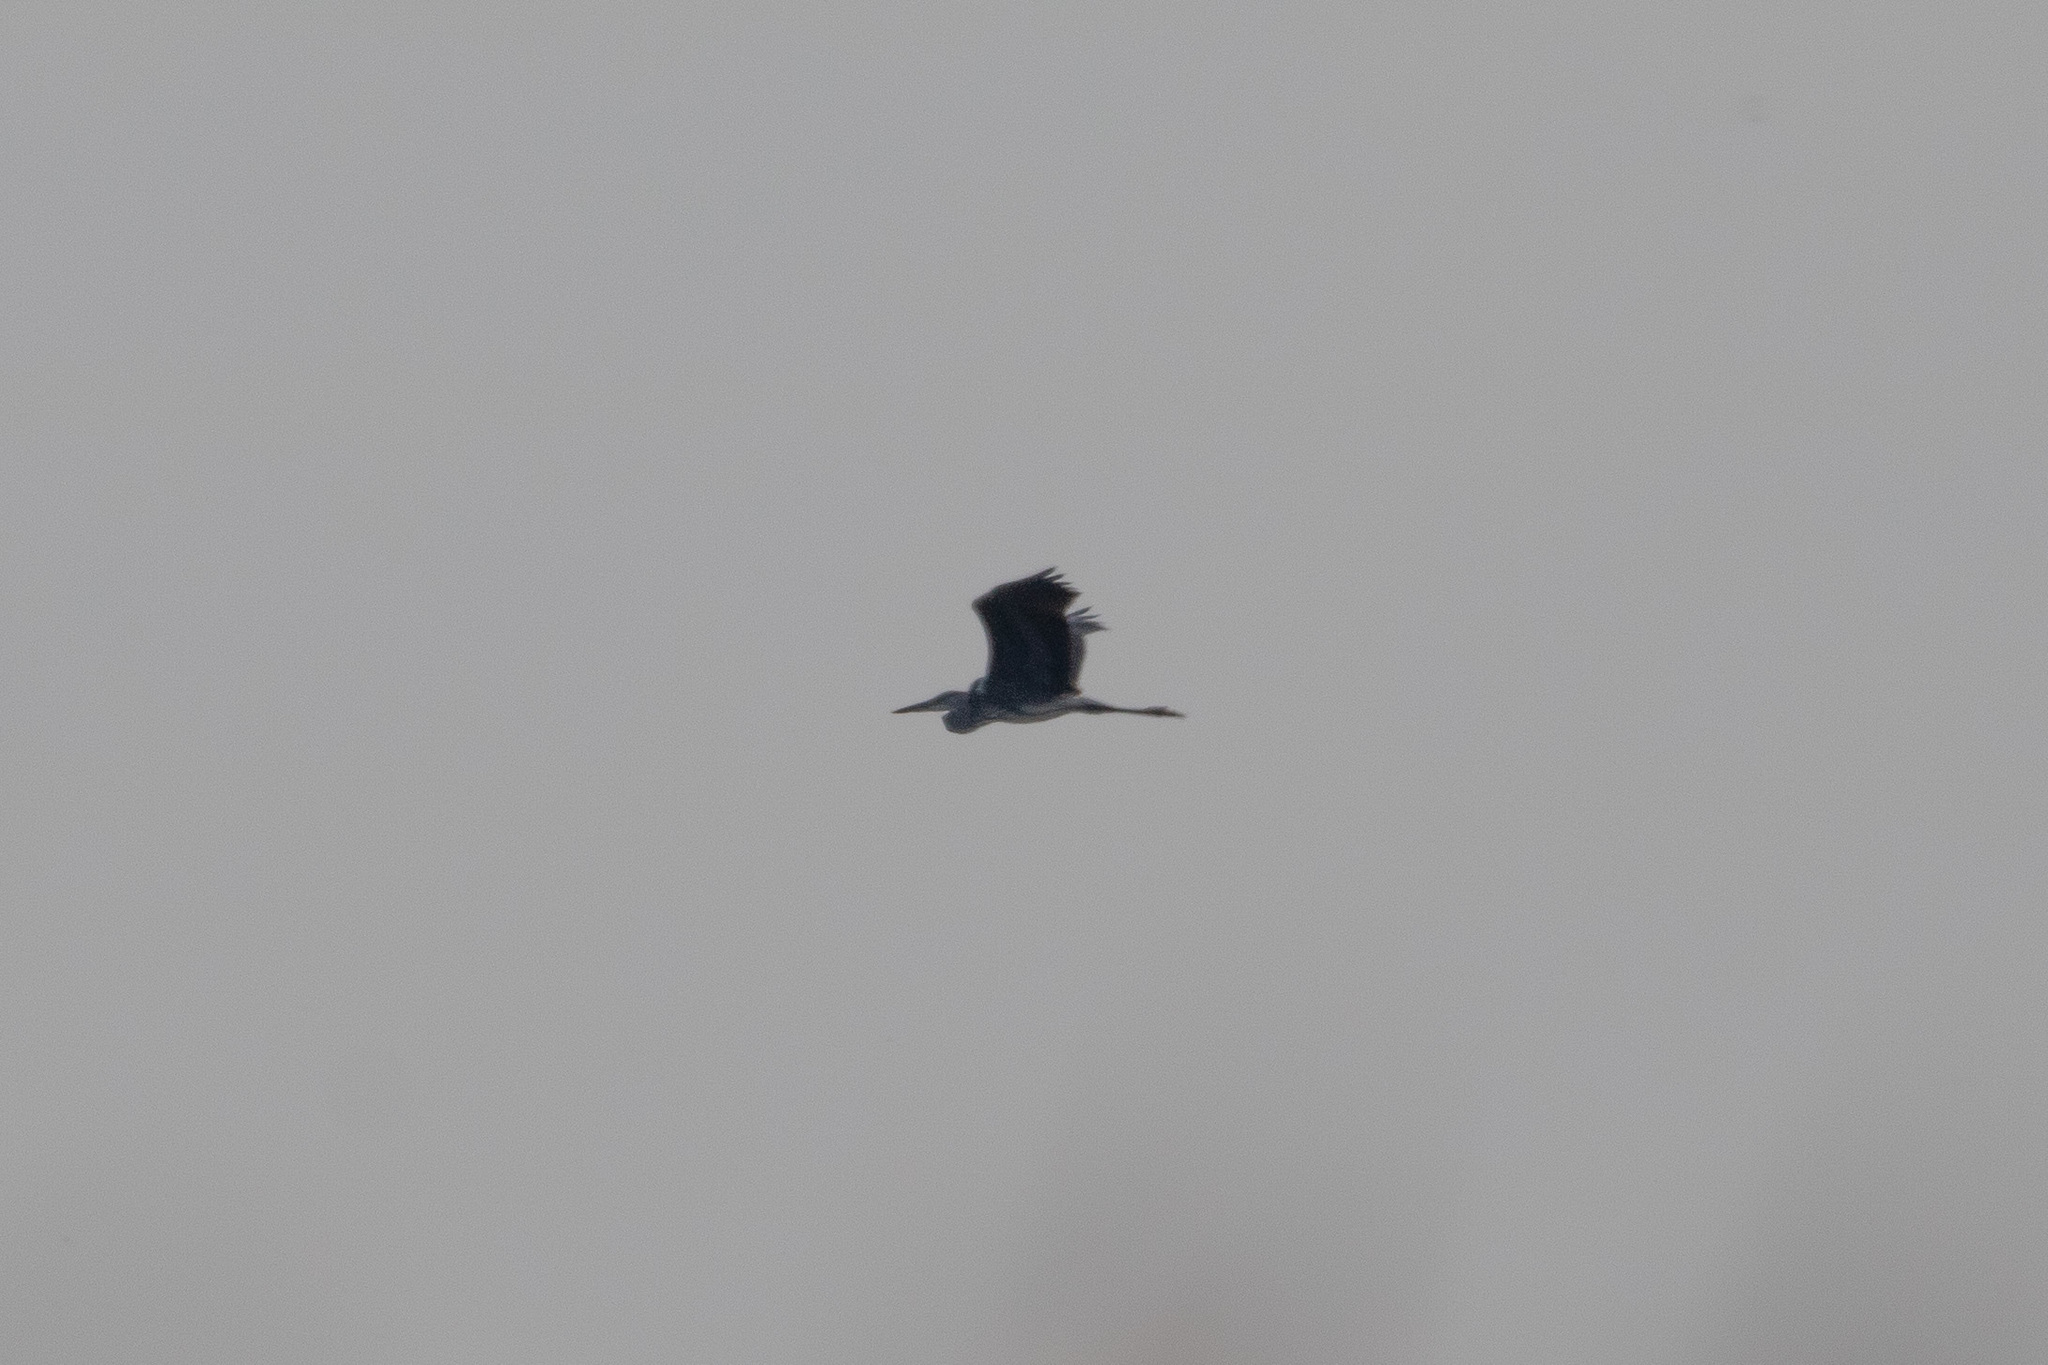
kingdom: Animalia
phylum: Chordata
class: Aves
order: Pelecaniformes
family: Ardeidae
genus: Ardea
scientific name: Ardea cinerea
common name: Grey heron
